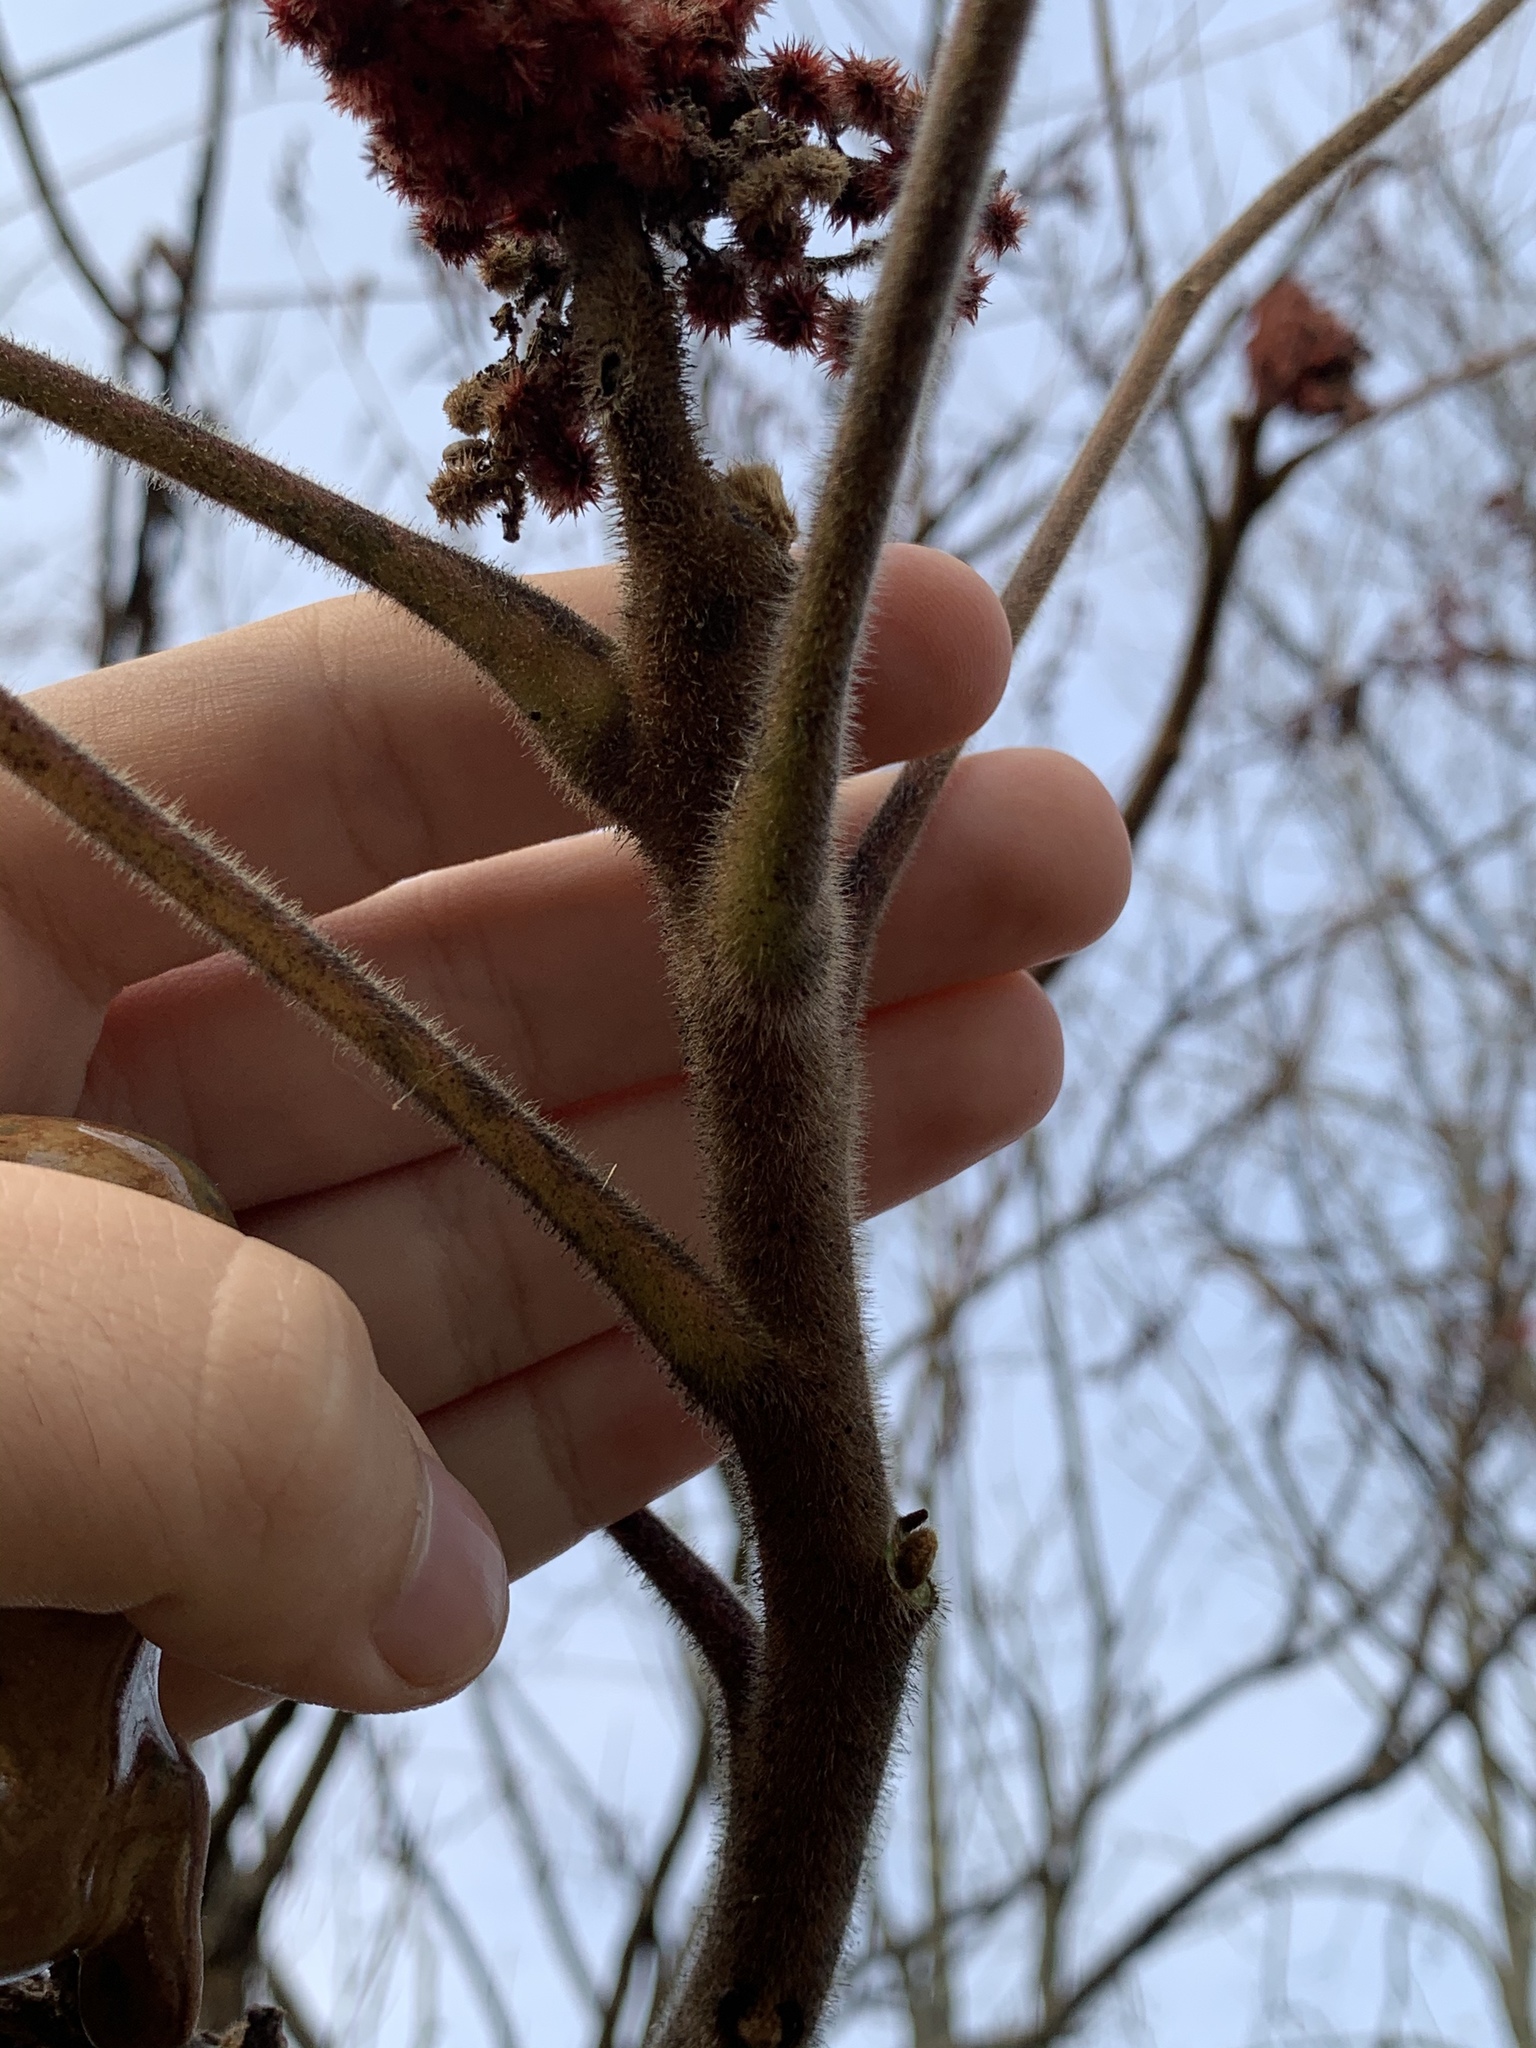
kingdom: Plantae
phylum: Tracheophyta
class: Magnoliopsida
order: Sapindales
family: Anacardiaceae
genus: Rhus
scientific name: Rhus typhina
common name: Staghorn sumac
